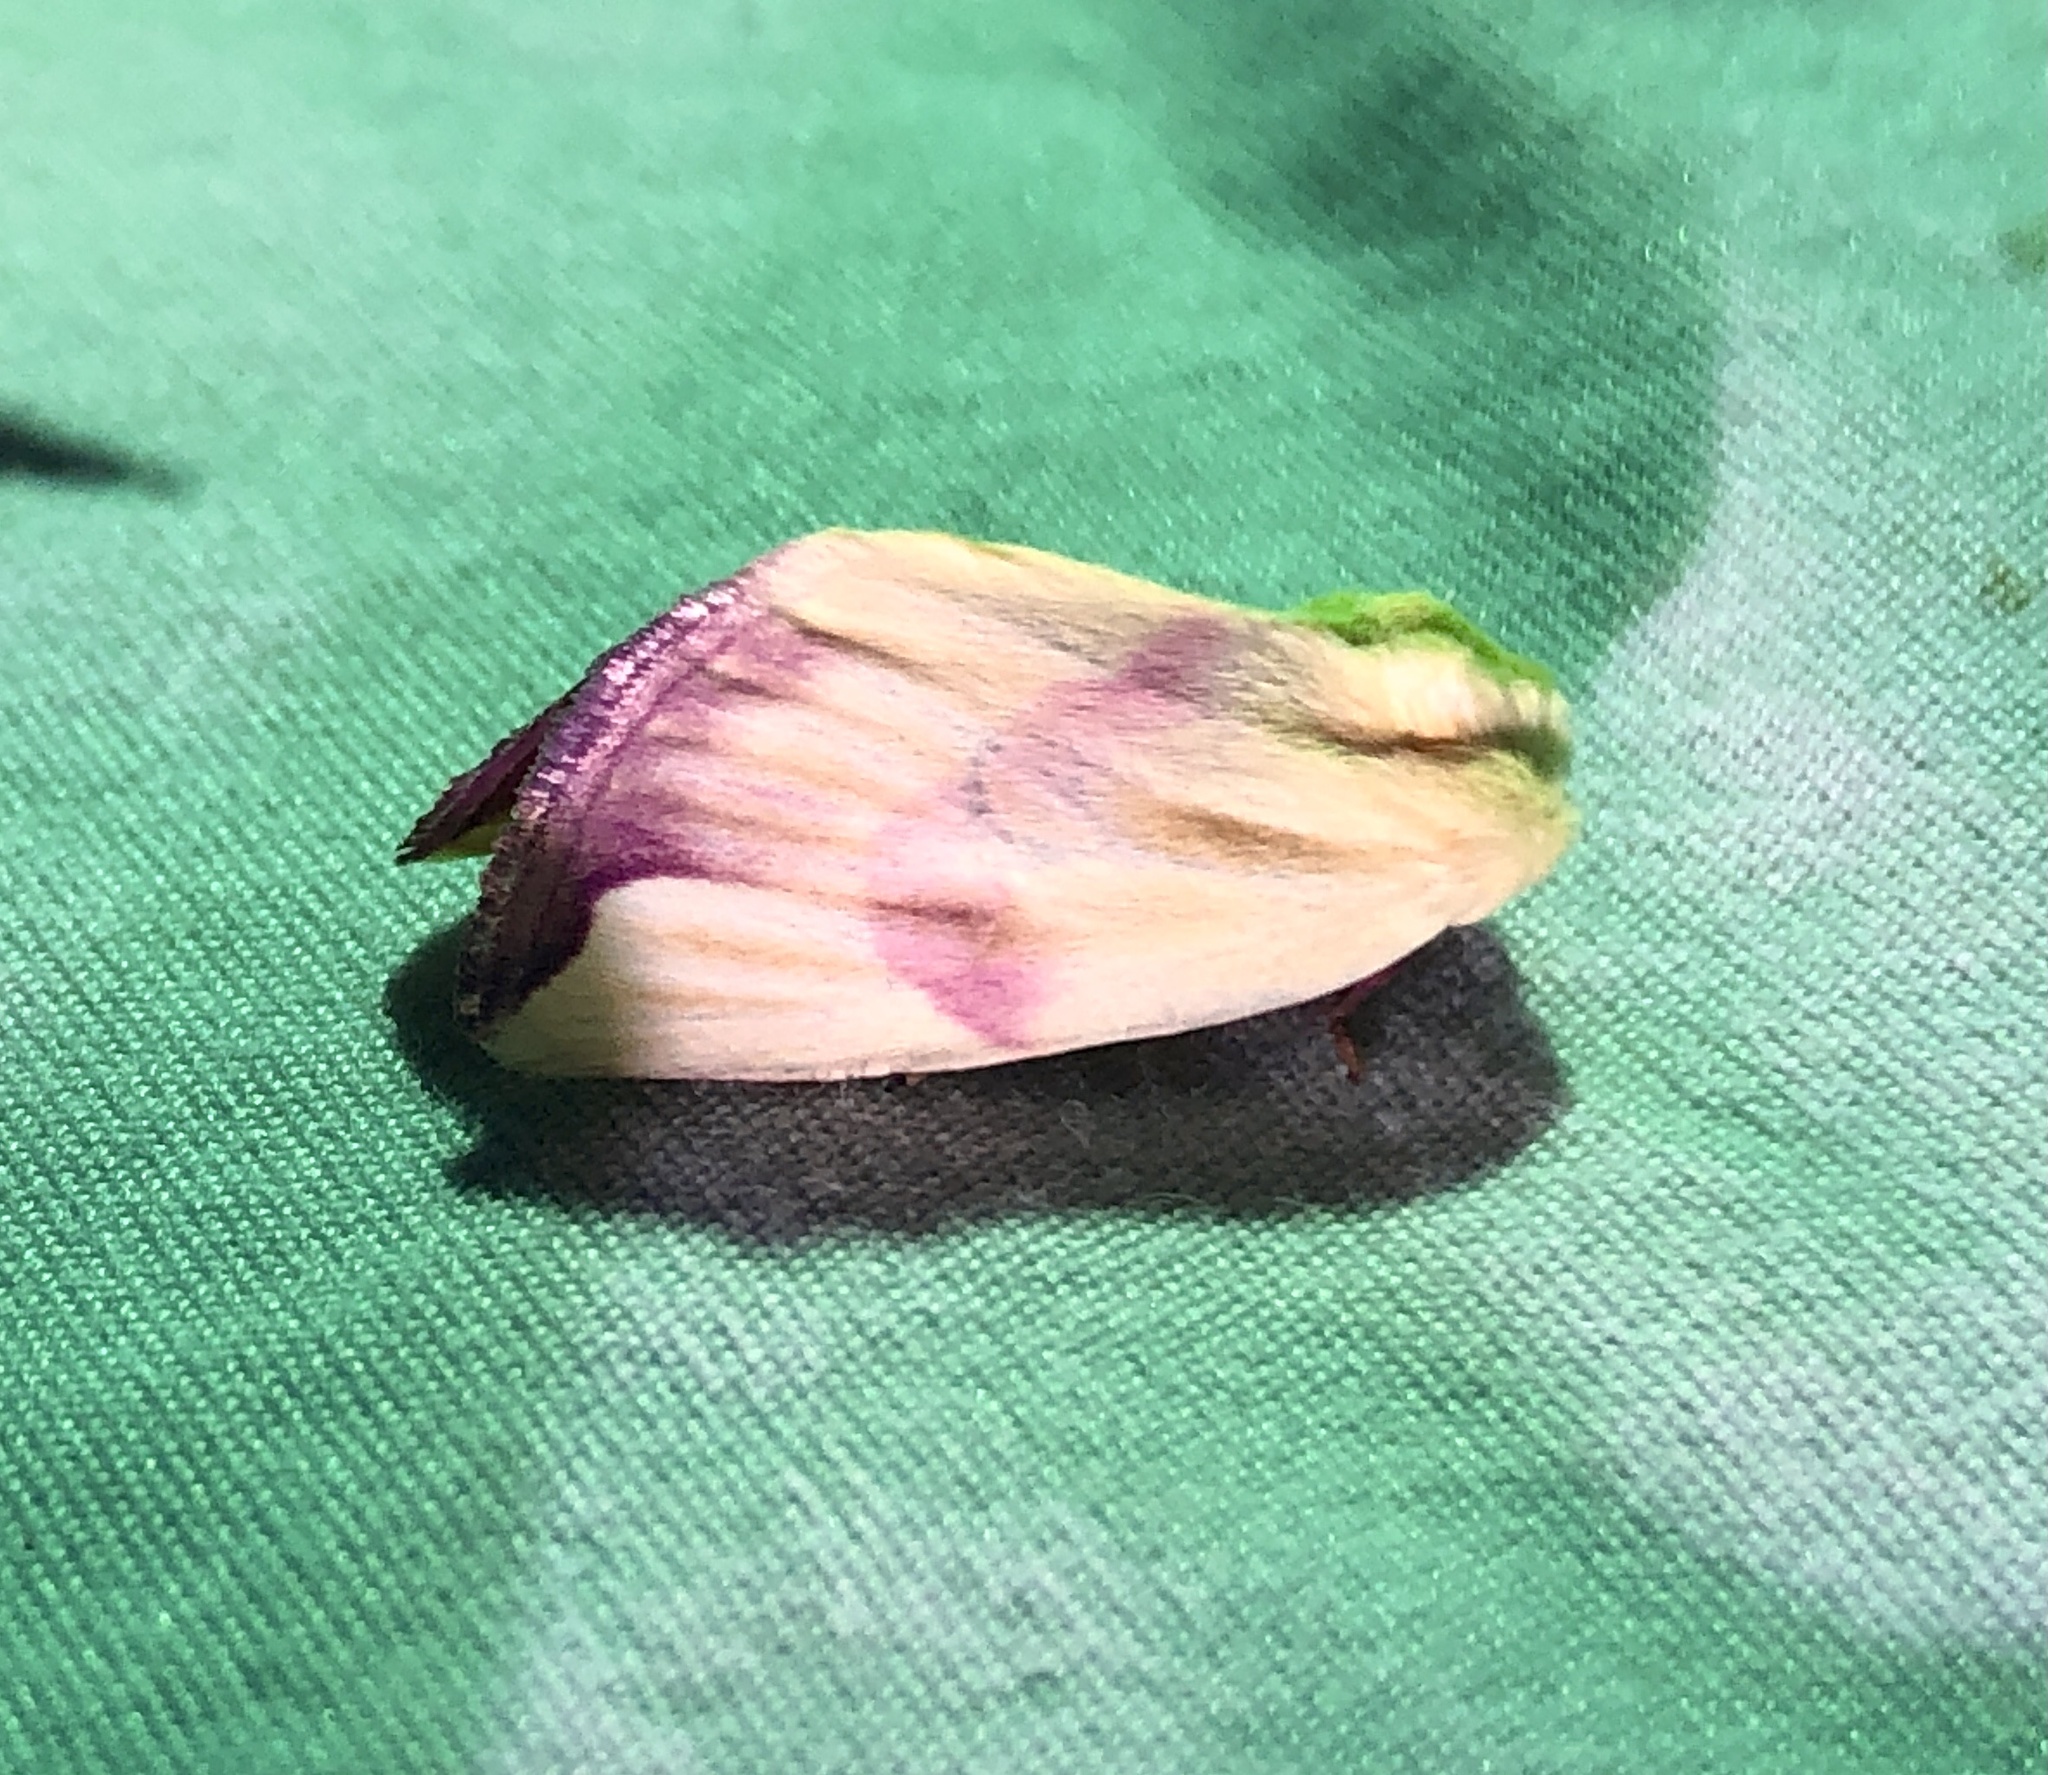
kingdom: Animalia
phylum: Arthropoda
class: Insecta
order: Lepidoptera
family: Noctuidae
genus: Thurberiphaga
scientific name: Thurberiphaga diffusa
